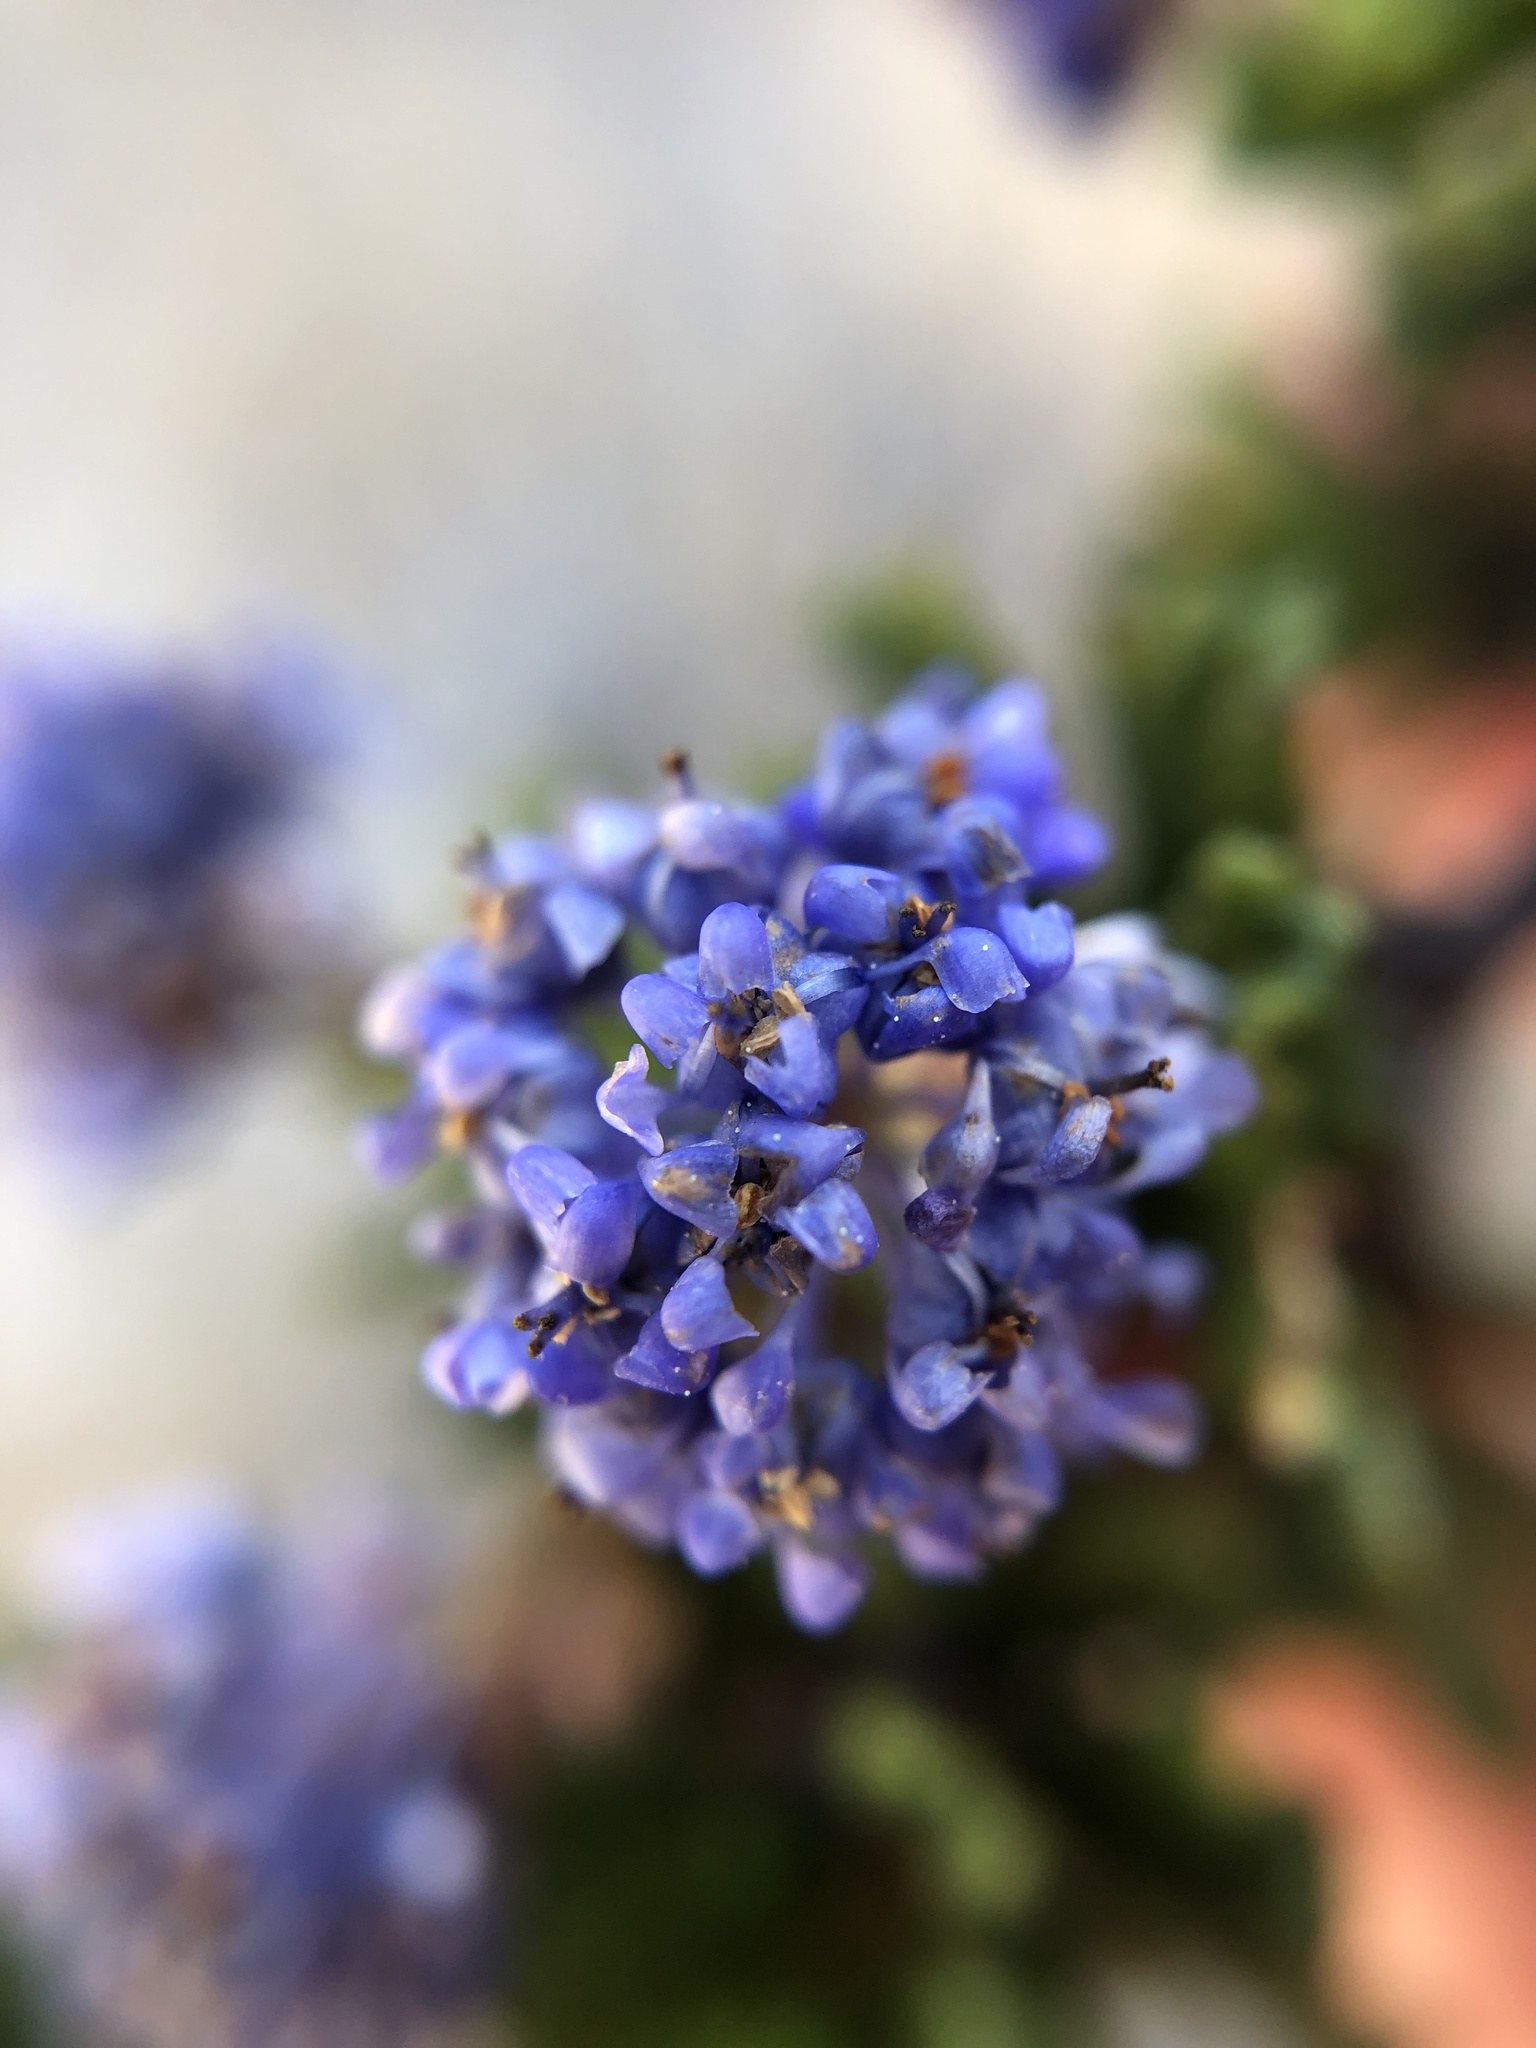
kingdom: Plantae
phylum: Tracheophyta
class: Magnoliopsida
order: Rosales
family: Rhamnaceae
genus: Ceanothus
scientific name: Ceanothus dentatus
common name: Crop-leaf ceanothus
